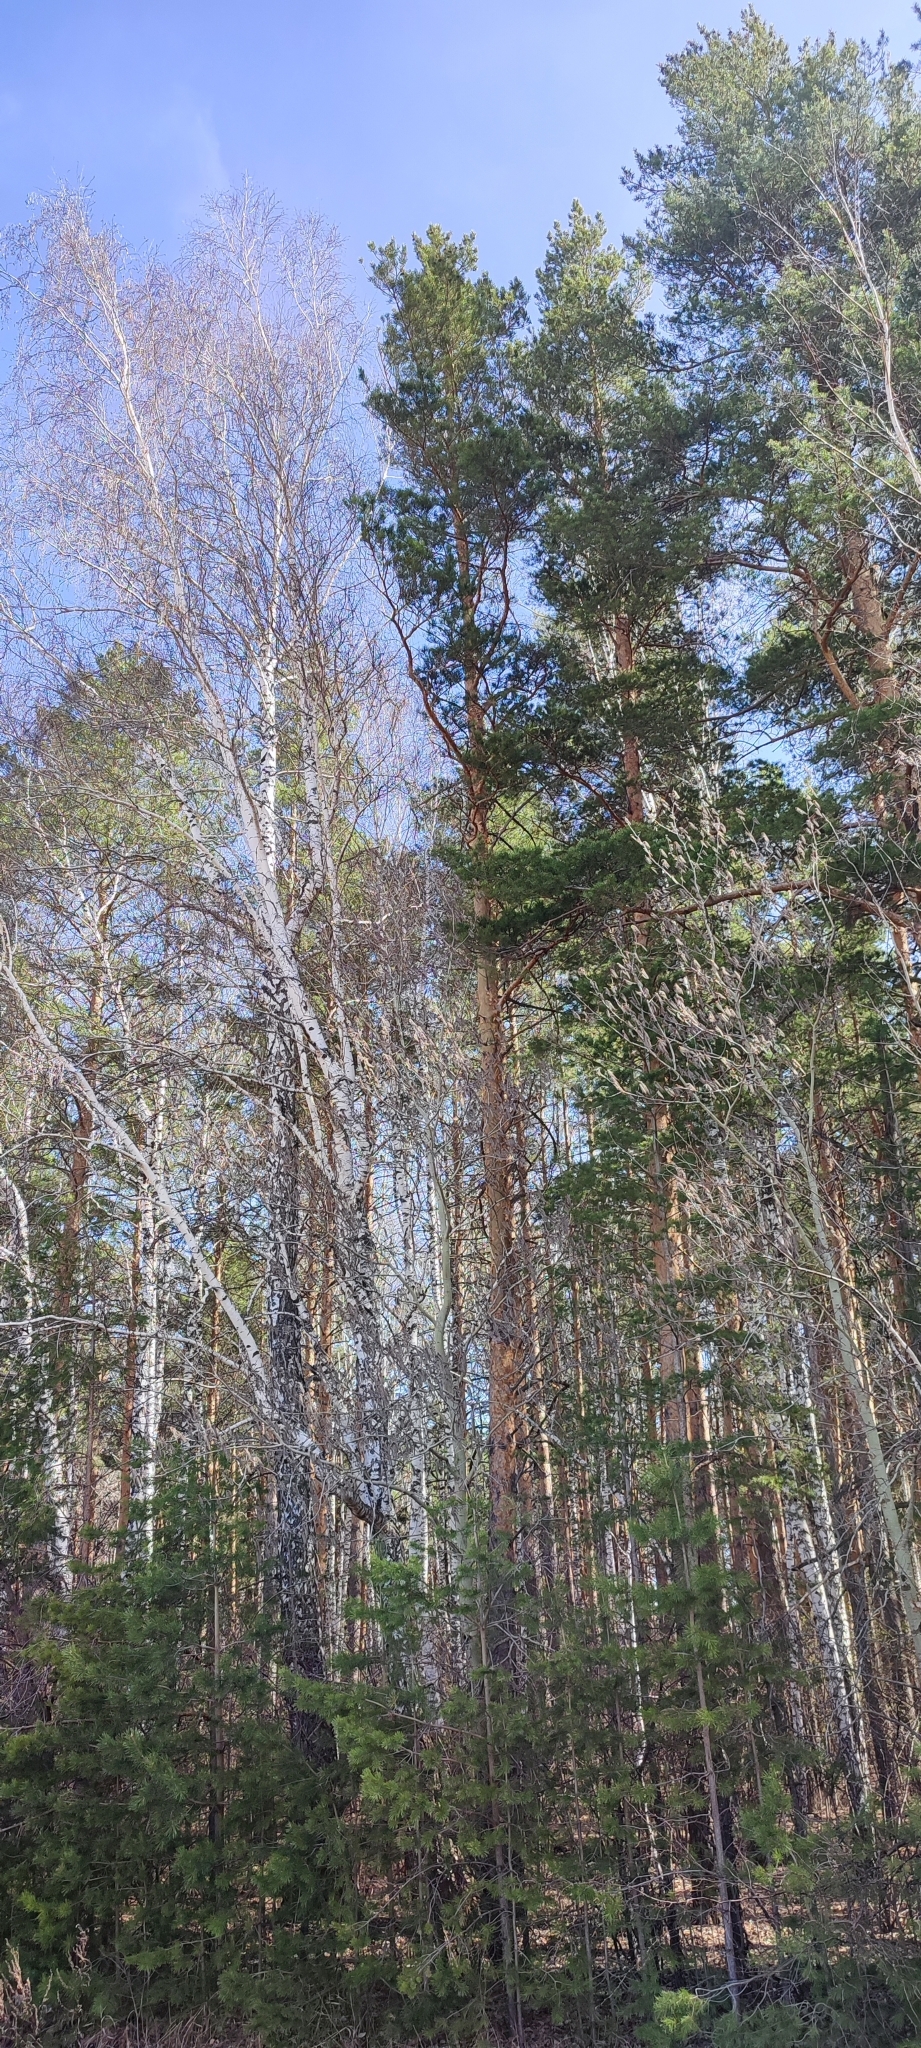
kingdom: Plantae
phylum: Tracheophyta
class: Pinopsida
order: Pinales
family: Pinaceae
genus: Pinus
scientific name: Pinus sylvestris
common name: Scots pine
